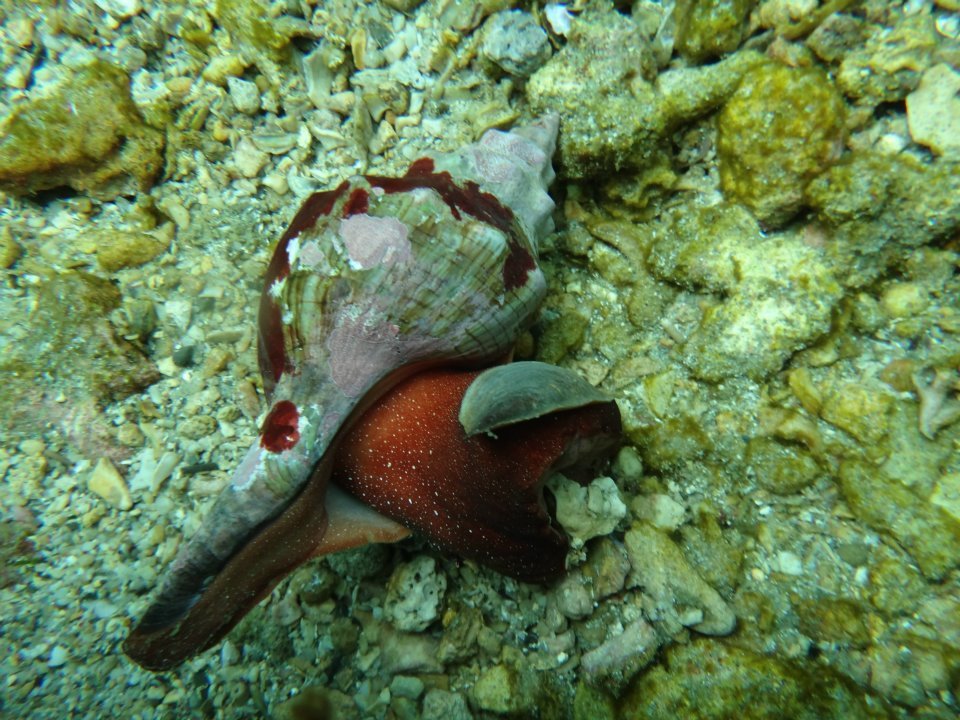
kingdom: Animalia
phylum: Mollusca
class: Gastropoda
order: Neogastropoda
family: Fasciolariidae
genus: Pleuroploca
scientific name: Pleuroploca trapezium
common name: Trapeze horseconch
